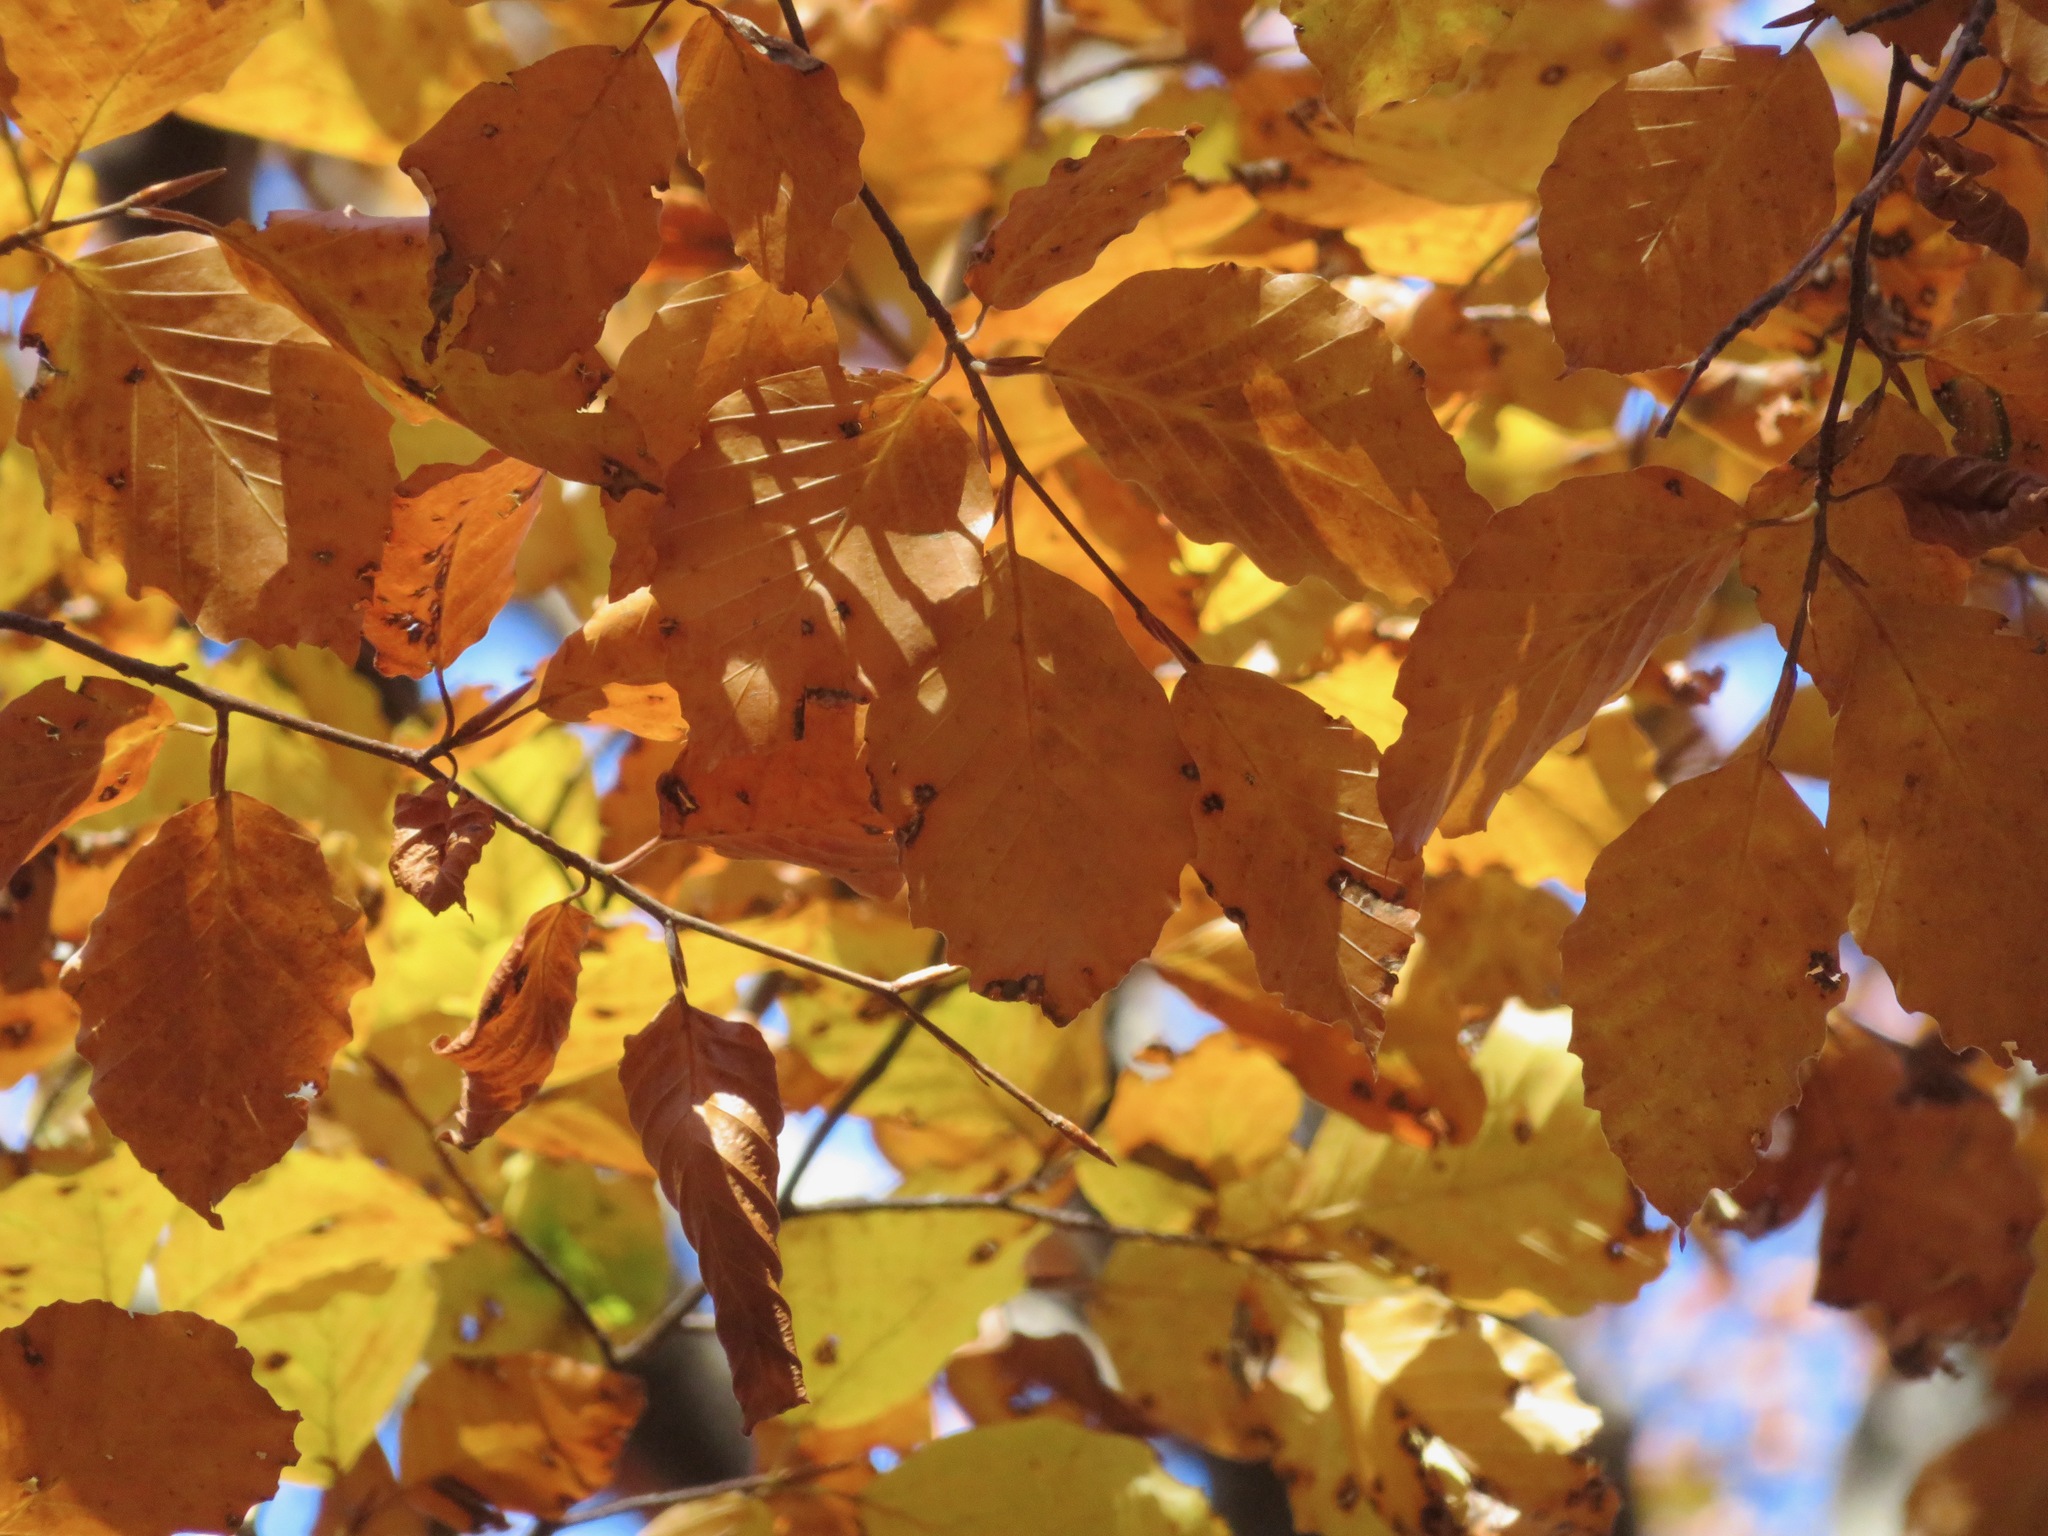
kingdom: Plantae
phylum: Tracheophyta
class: Magnoliopsida
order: Fagales
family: Fagaceae
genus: Fagus
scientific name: Fagus sylvatica
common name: Beech
